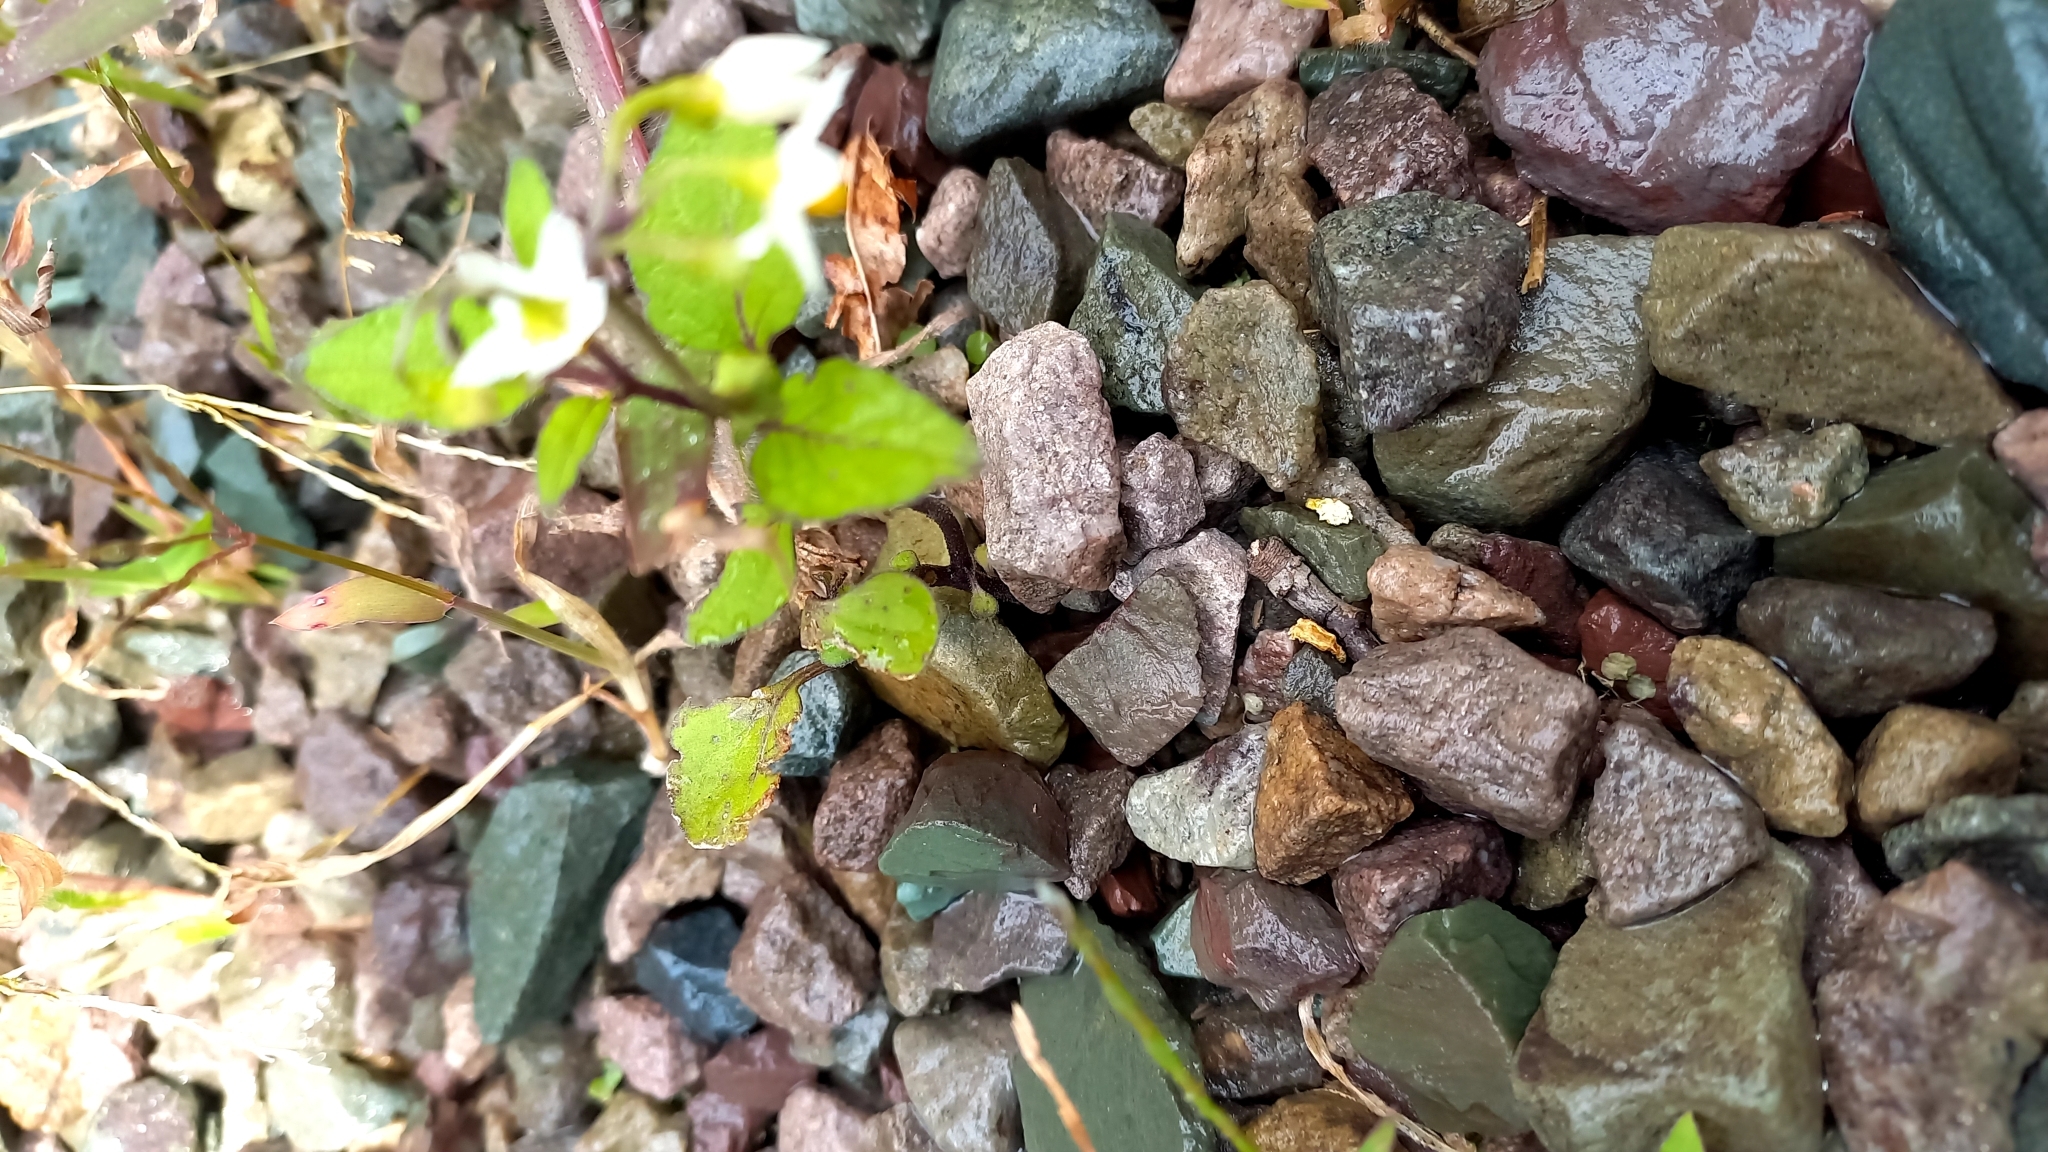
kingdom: Plantae
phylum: Tracheophyta
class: Magnoliopsida
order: Solanales
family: Solanaceae
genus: Solanum
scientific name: Solanum nigrum
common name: Black nightshade
